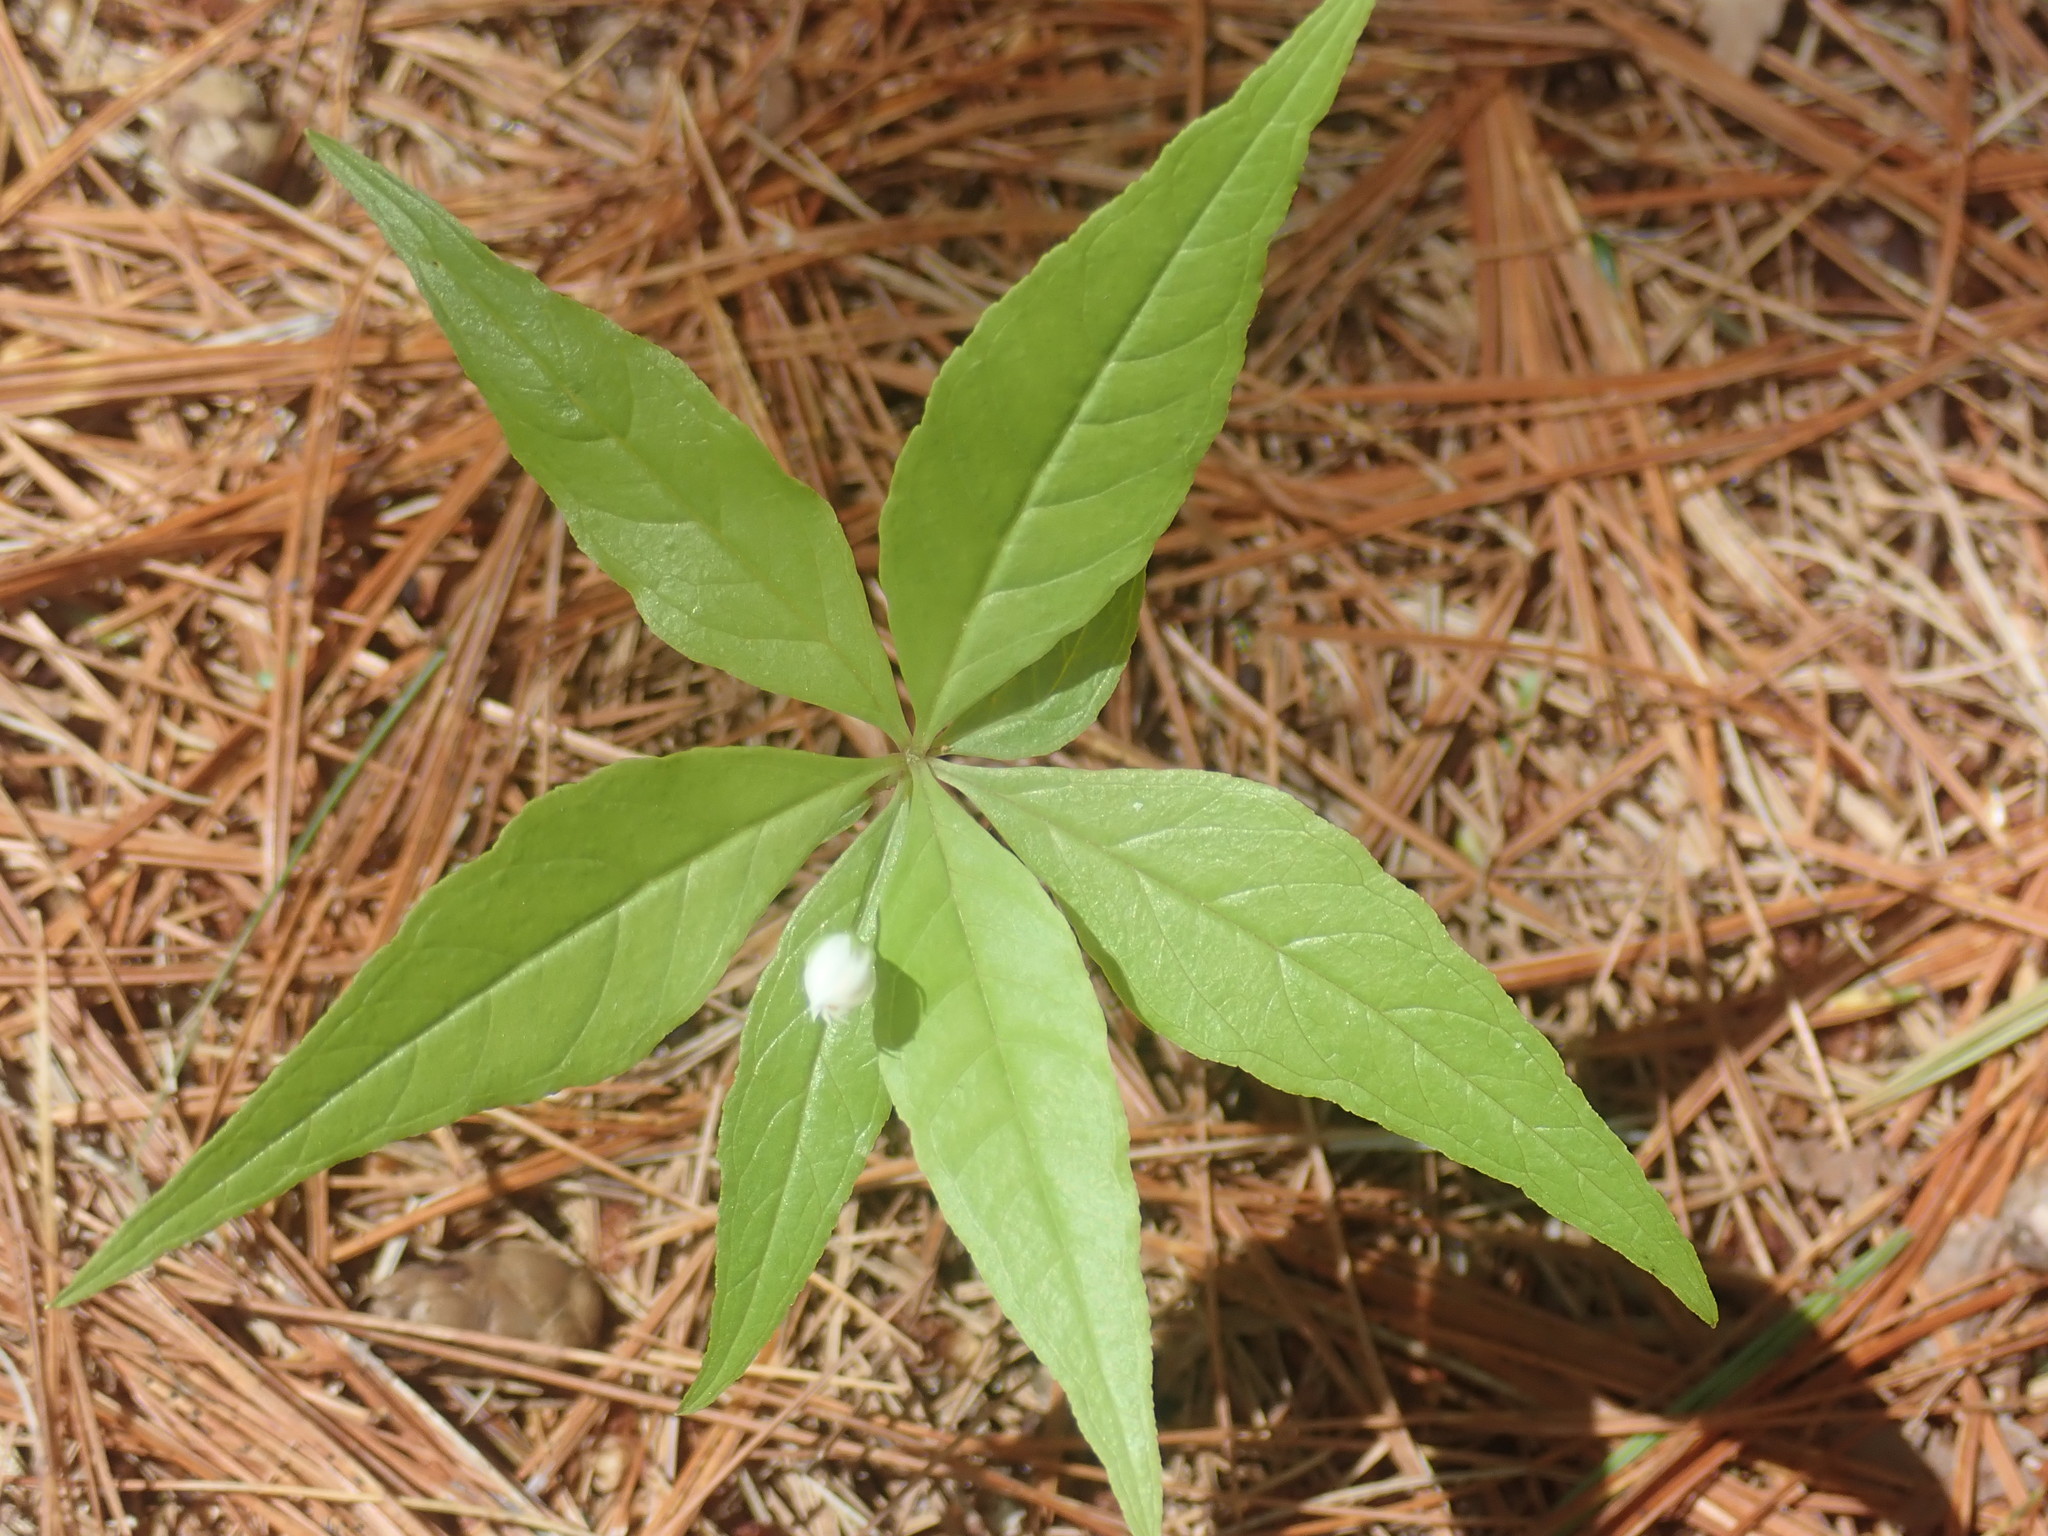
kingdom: Plantae
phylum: Tracheophyta
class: Magnoliopsida
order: Ericales
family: Primulaceae
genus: Lysimachia
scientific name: Lysimachia borealis
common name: American starflower
